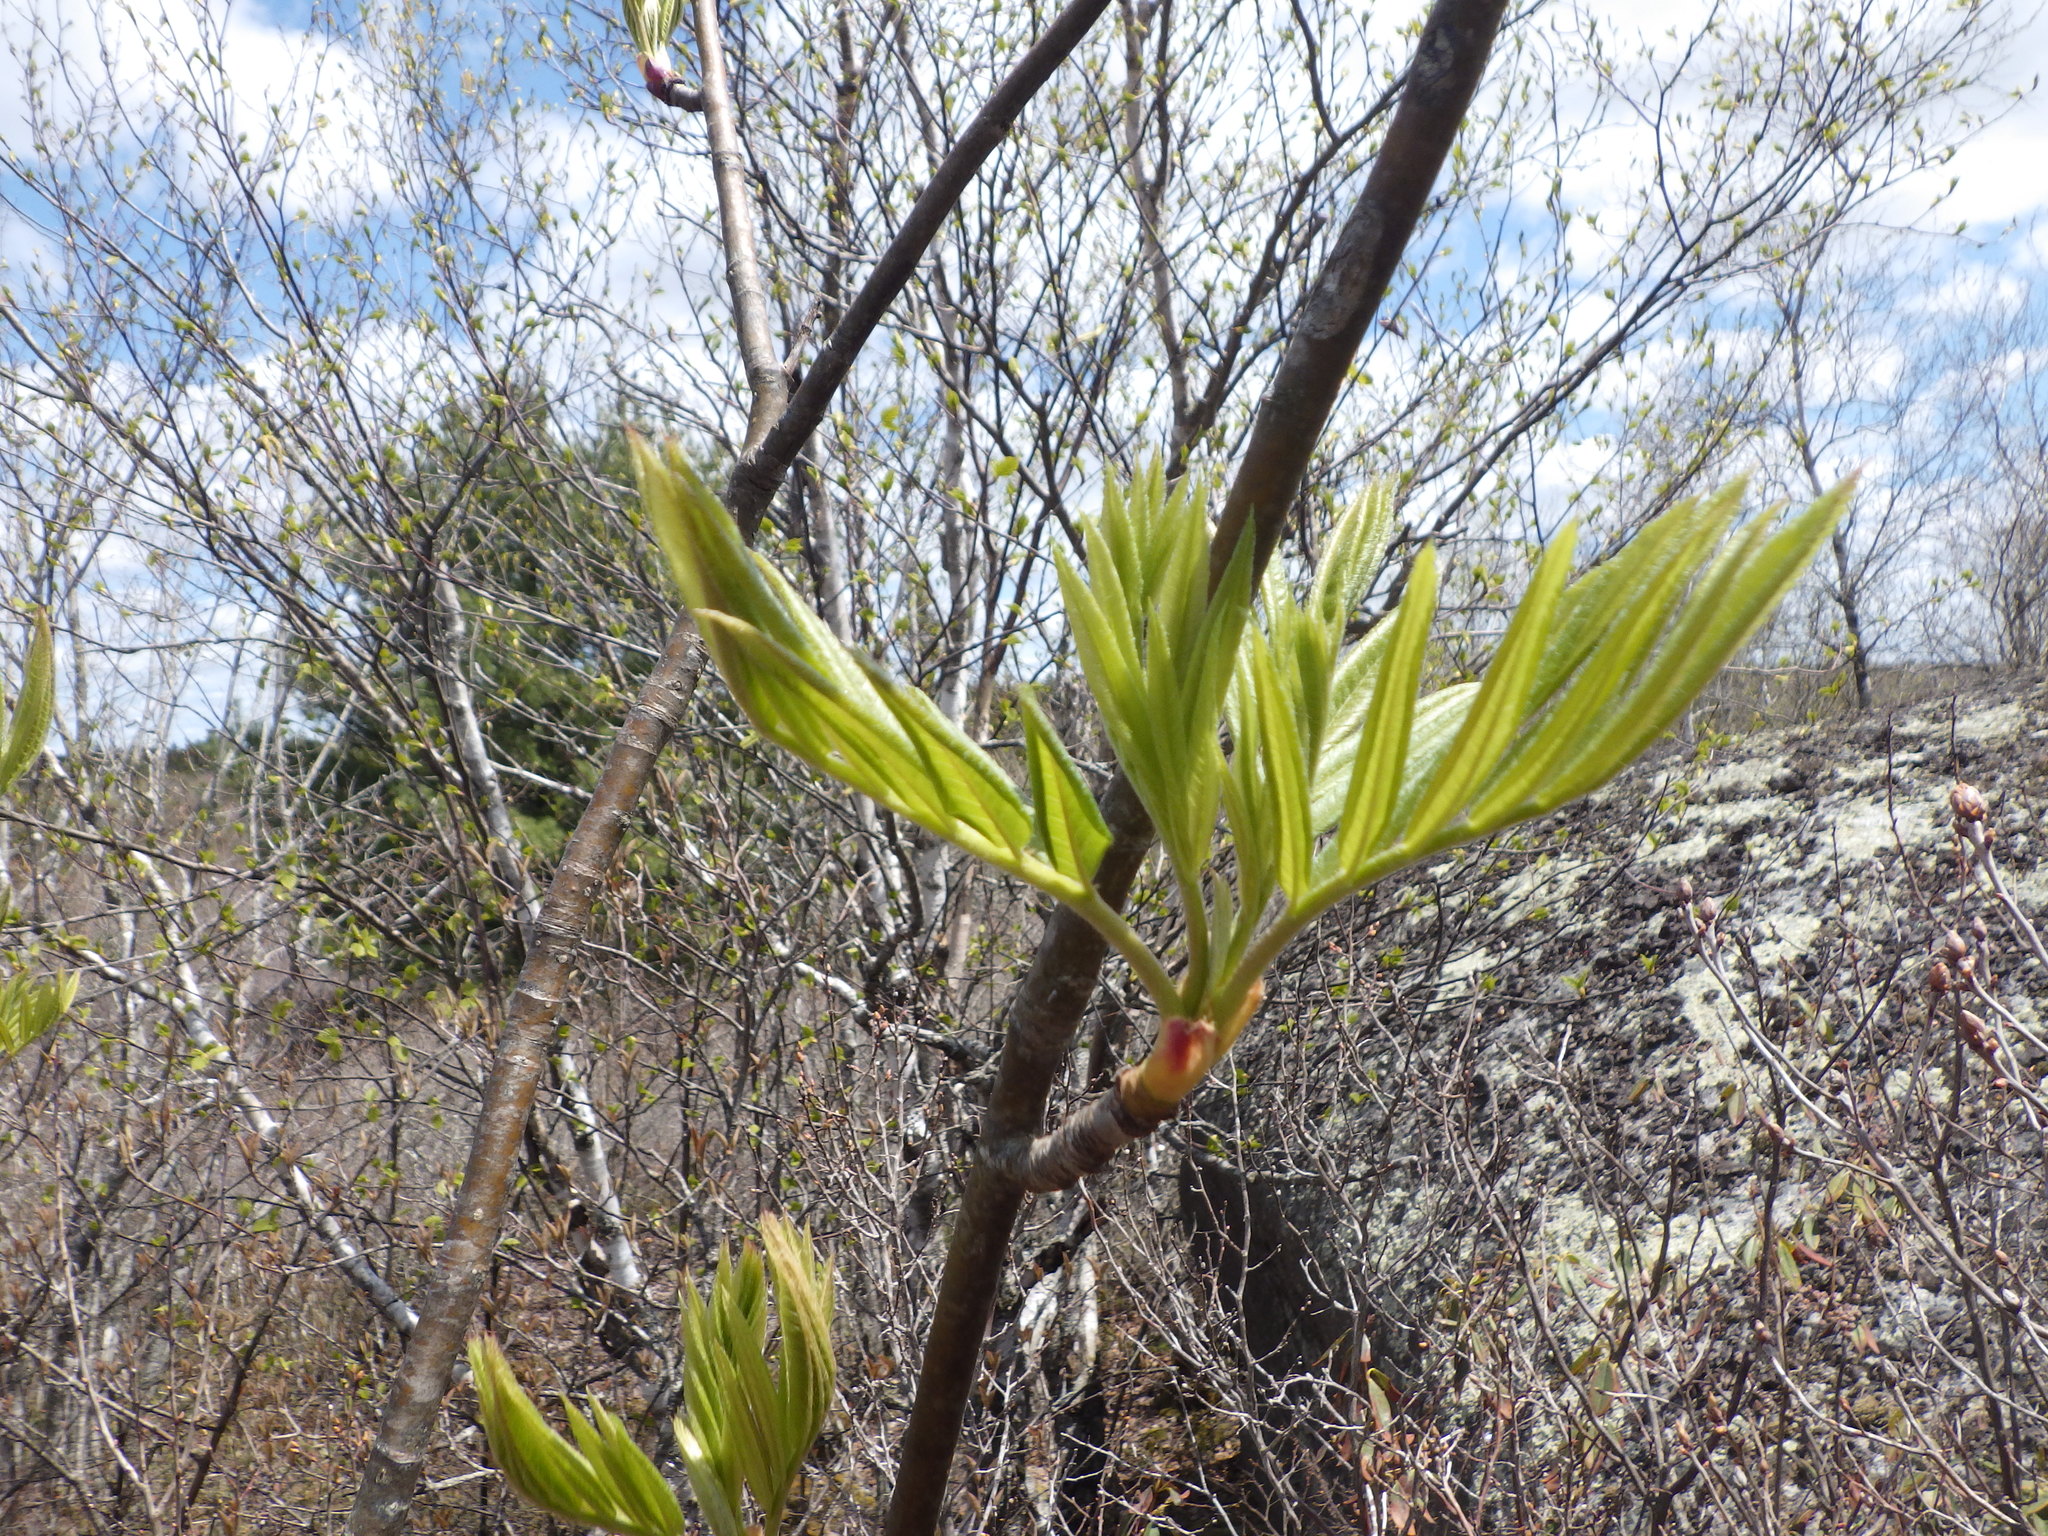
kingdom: Plantae
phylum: Tracheophyta
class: Magnoliopsida
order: Rosales
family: Rosaceae
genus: Sorbus
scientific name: Sorbus americana
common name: American mountain-ash
